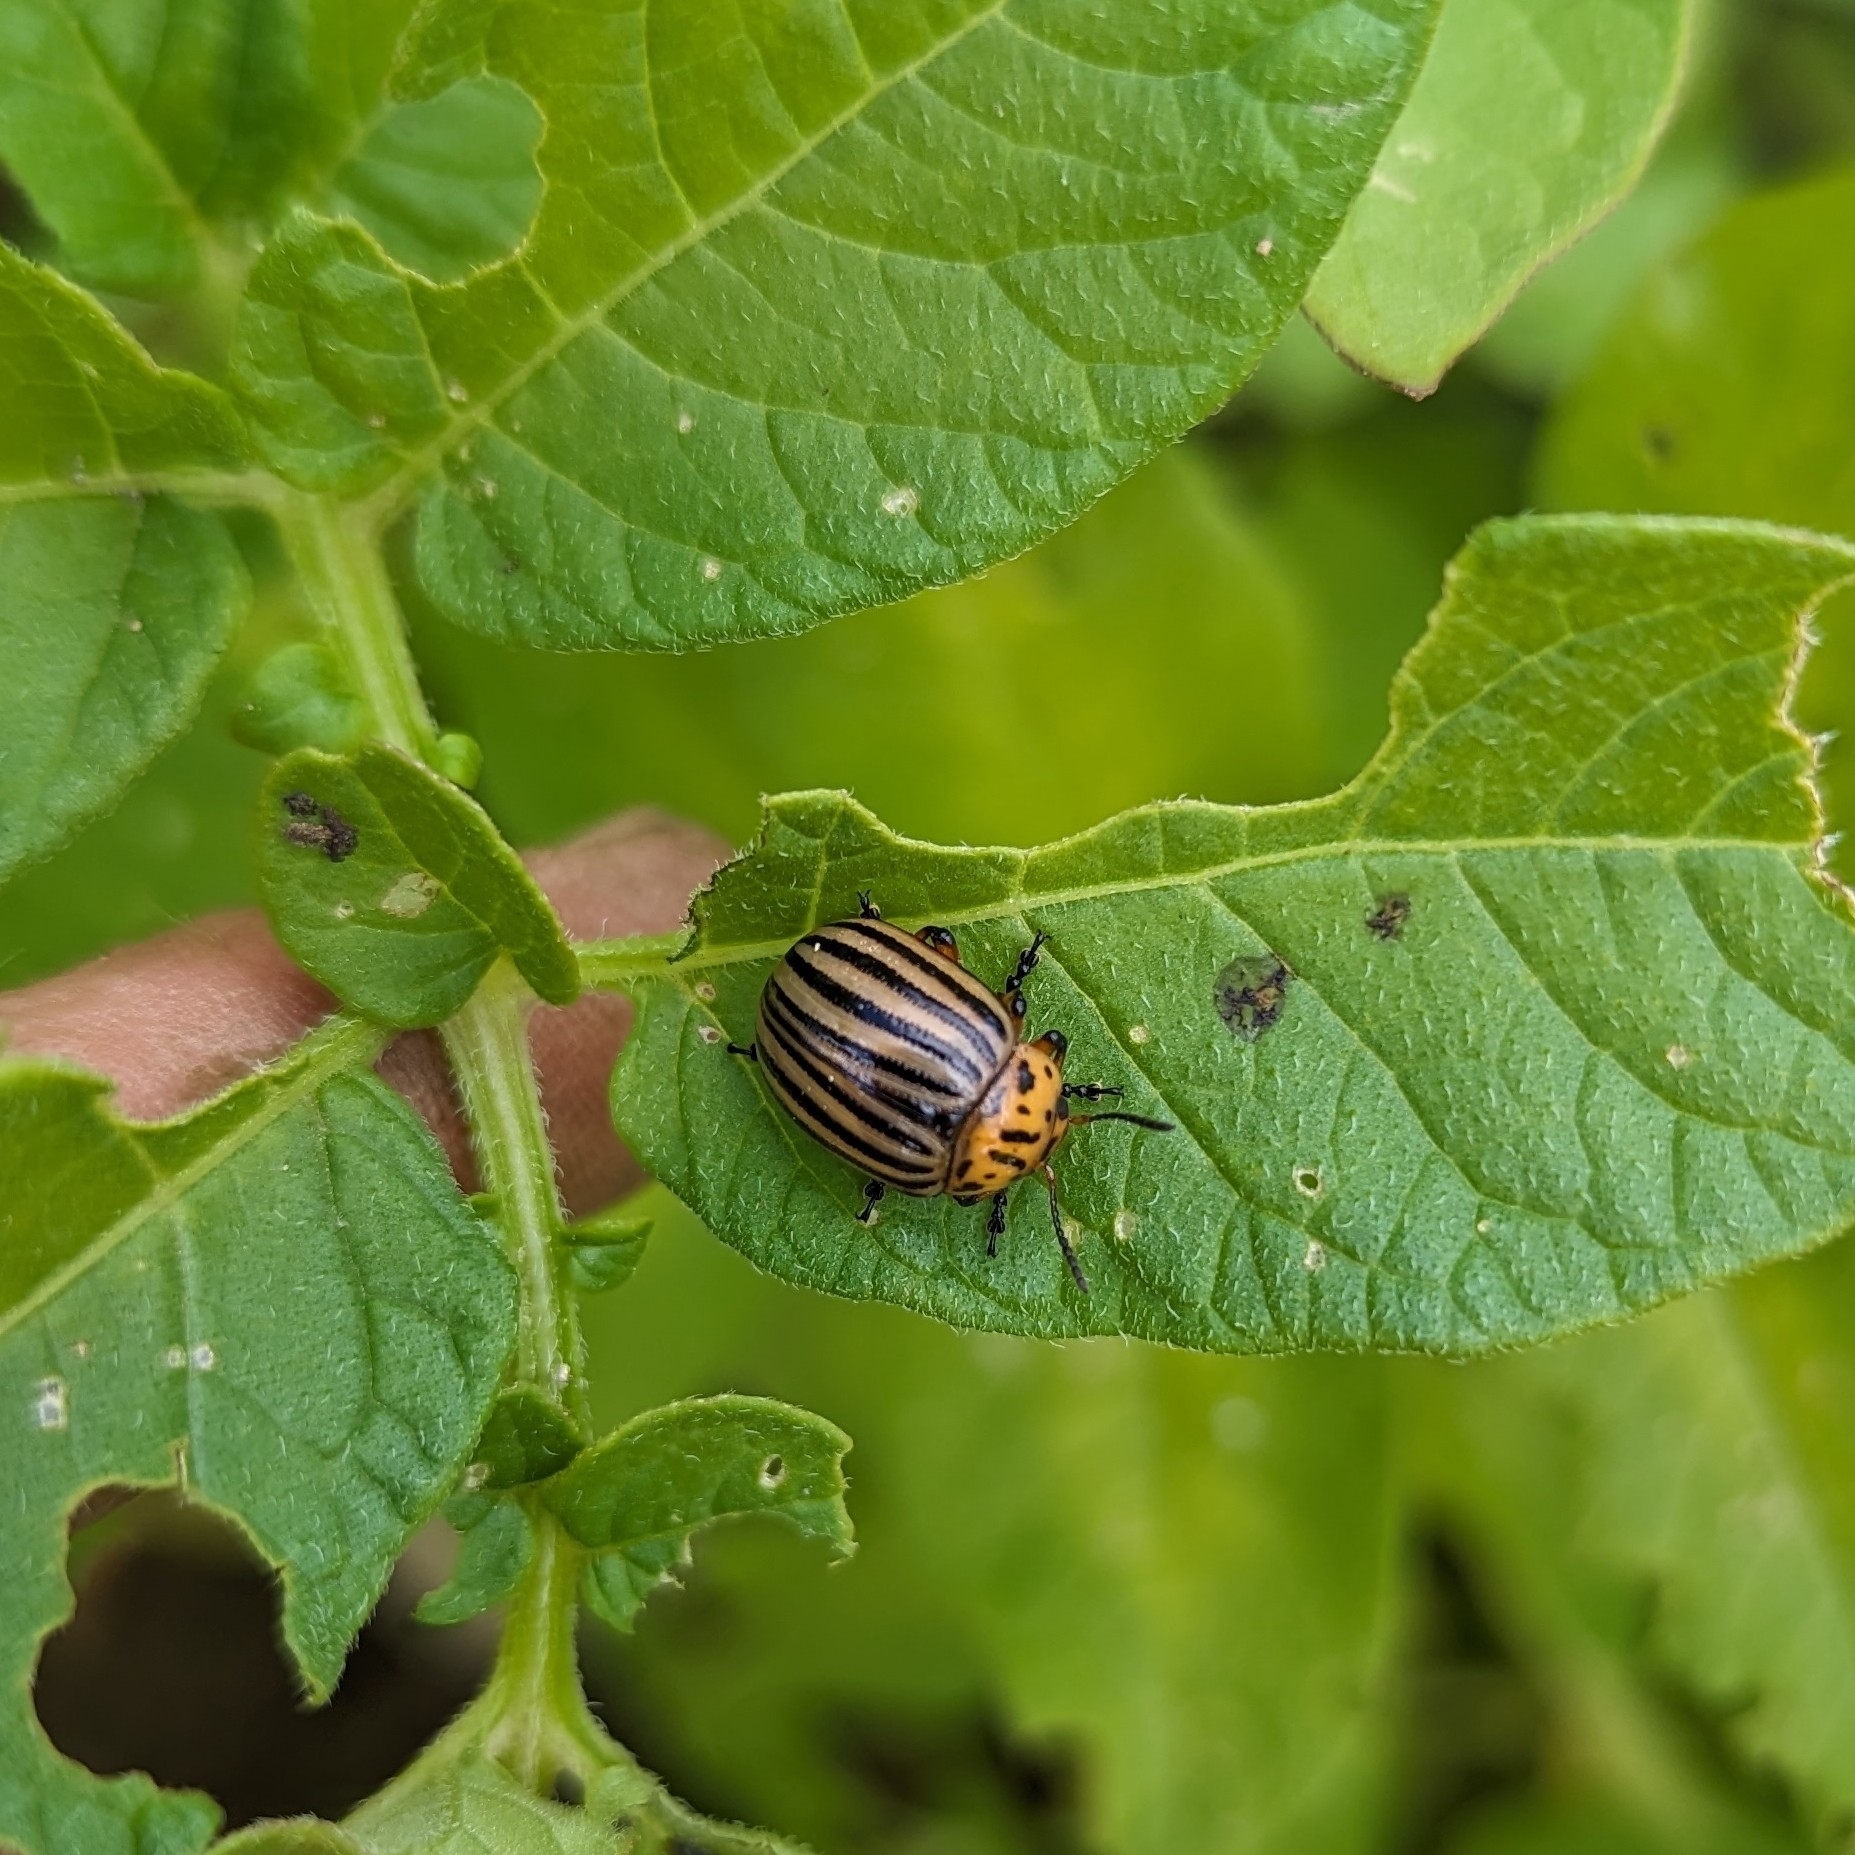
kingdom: Animalia
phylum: Arthropoda
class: Insecta
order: Coleoptera
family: Chrysomelidae
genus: Leptinotarsa
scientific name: Leptinotarsa decemlineata
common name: Colorado potato beetle
